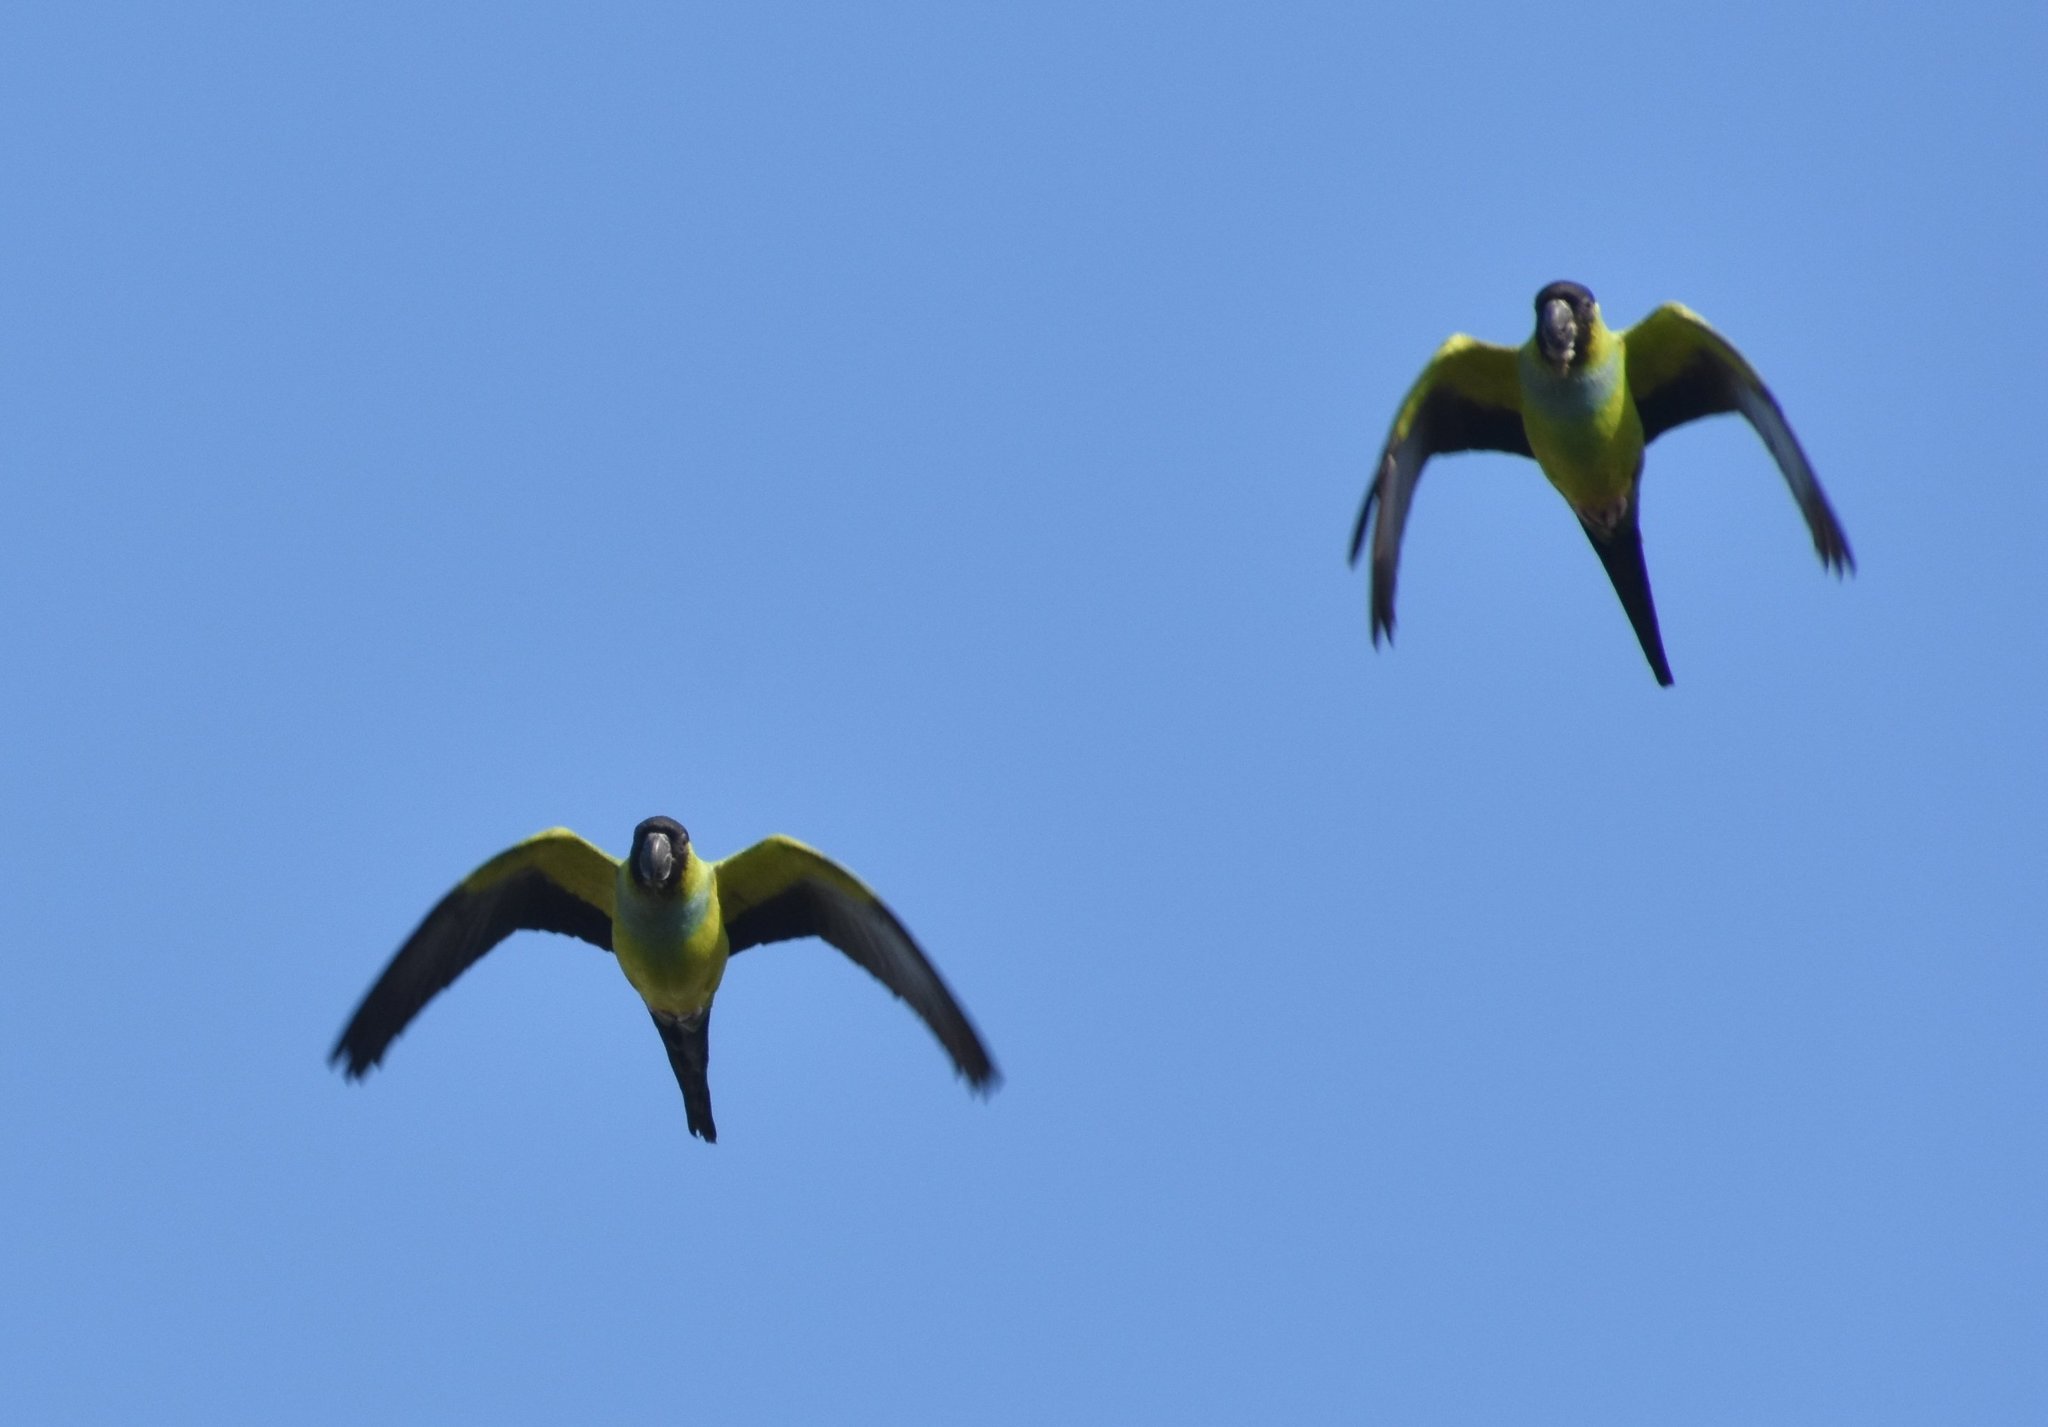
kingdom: Animalia
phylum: Chordata
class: Aves
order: Psittaciformes
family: Psittacidae
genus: Nandayus
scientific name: Nandayus nenday
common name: Nanday parakeet
